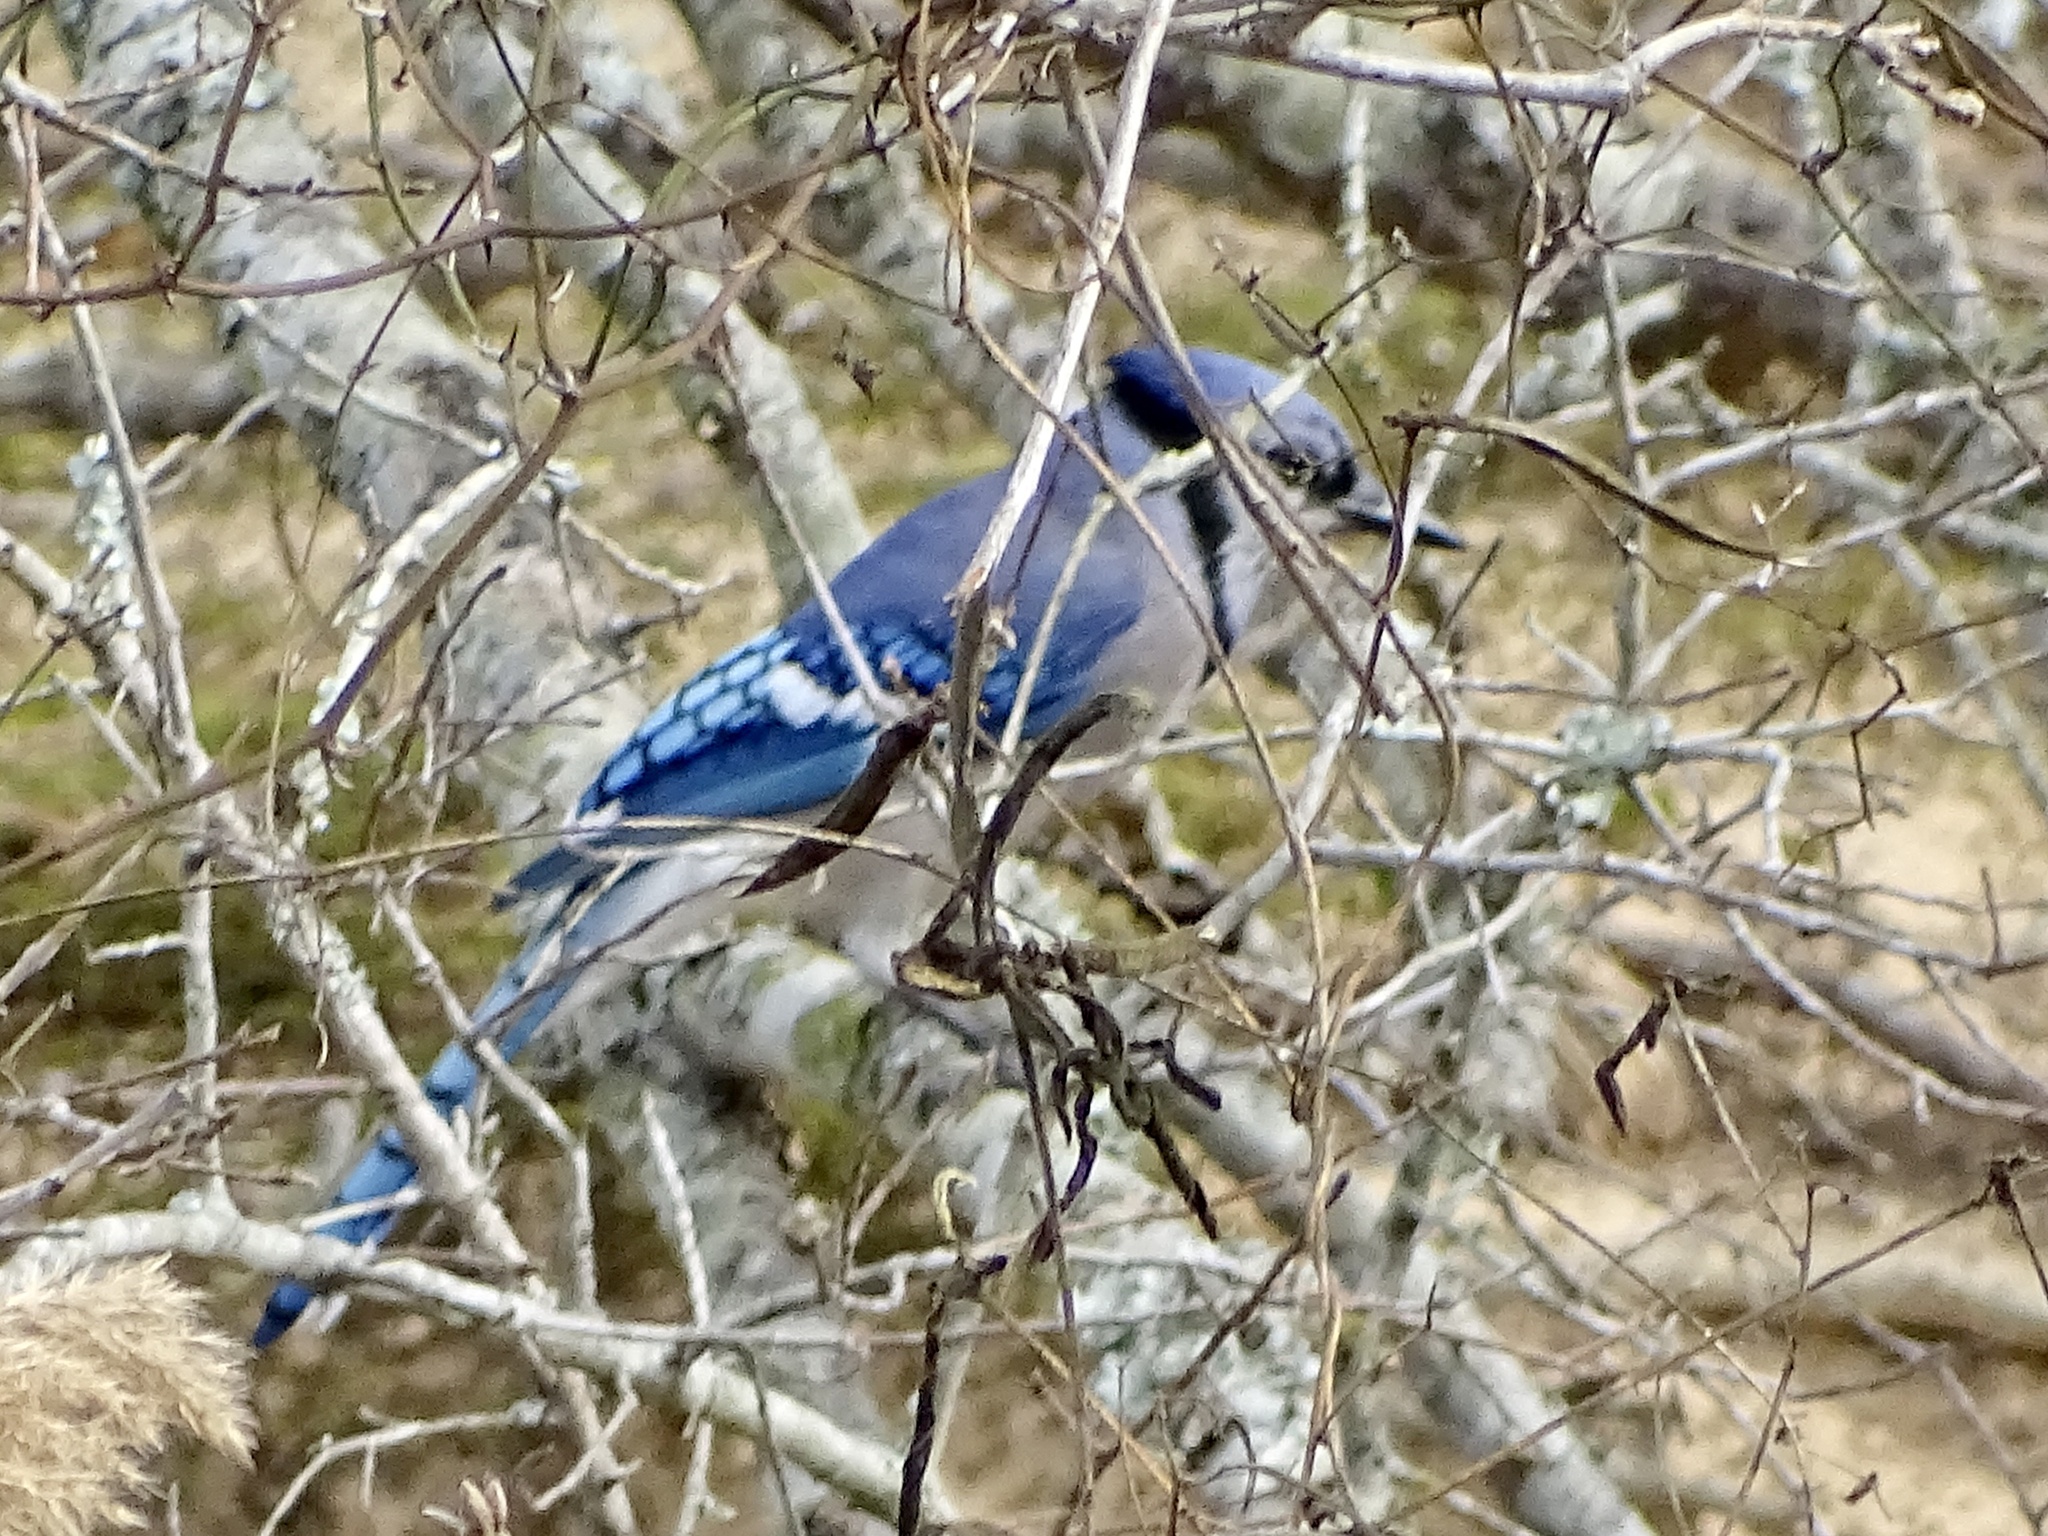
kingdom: Animalia
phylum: Chordata
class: Aves
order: Passeriformes
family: Corvidae
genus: Cyanocitta
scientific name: Cyanocitta cristata
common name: Blue jay
